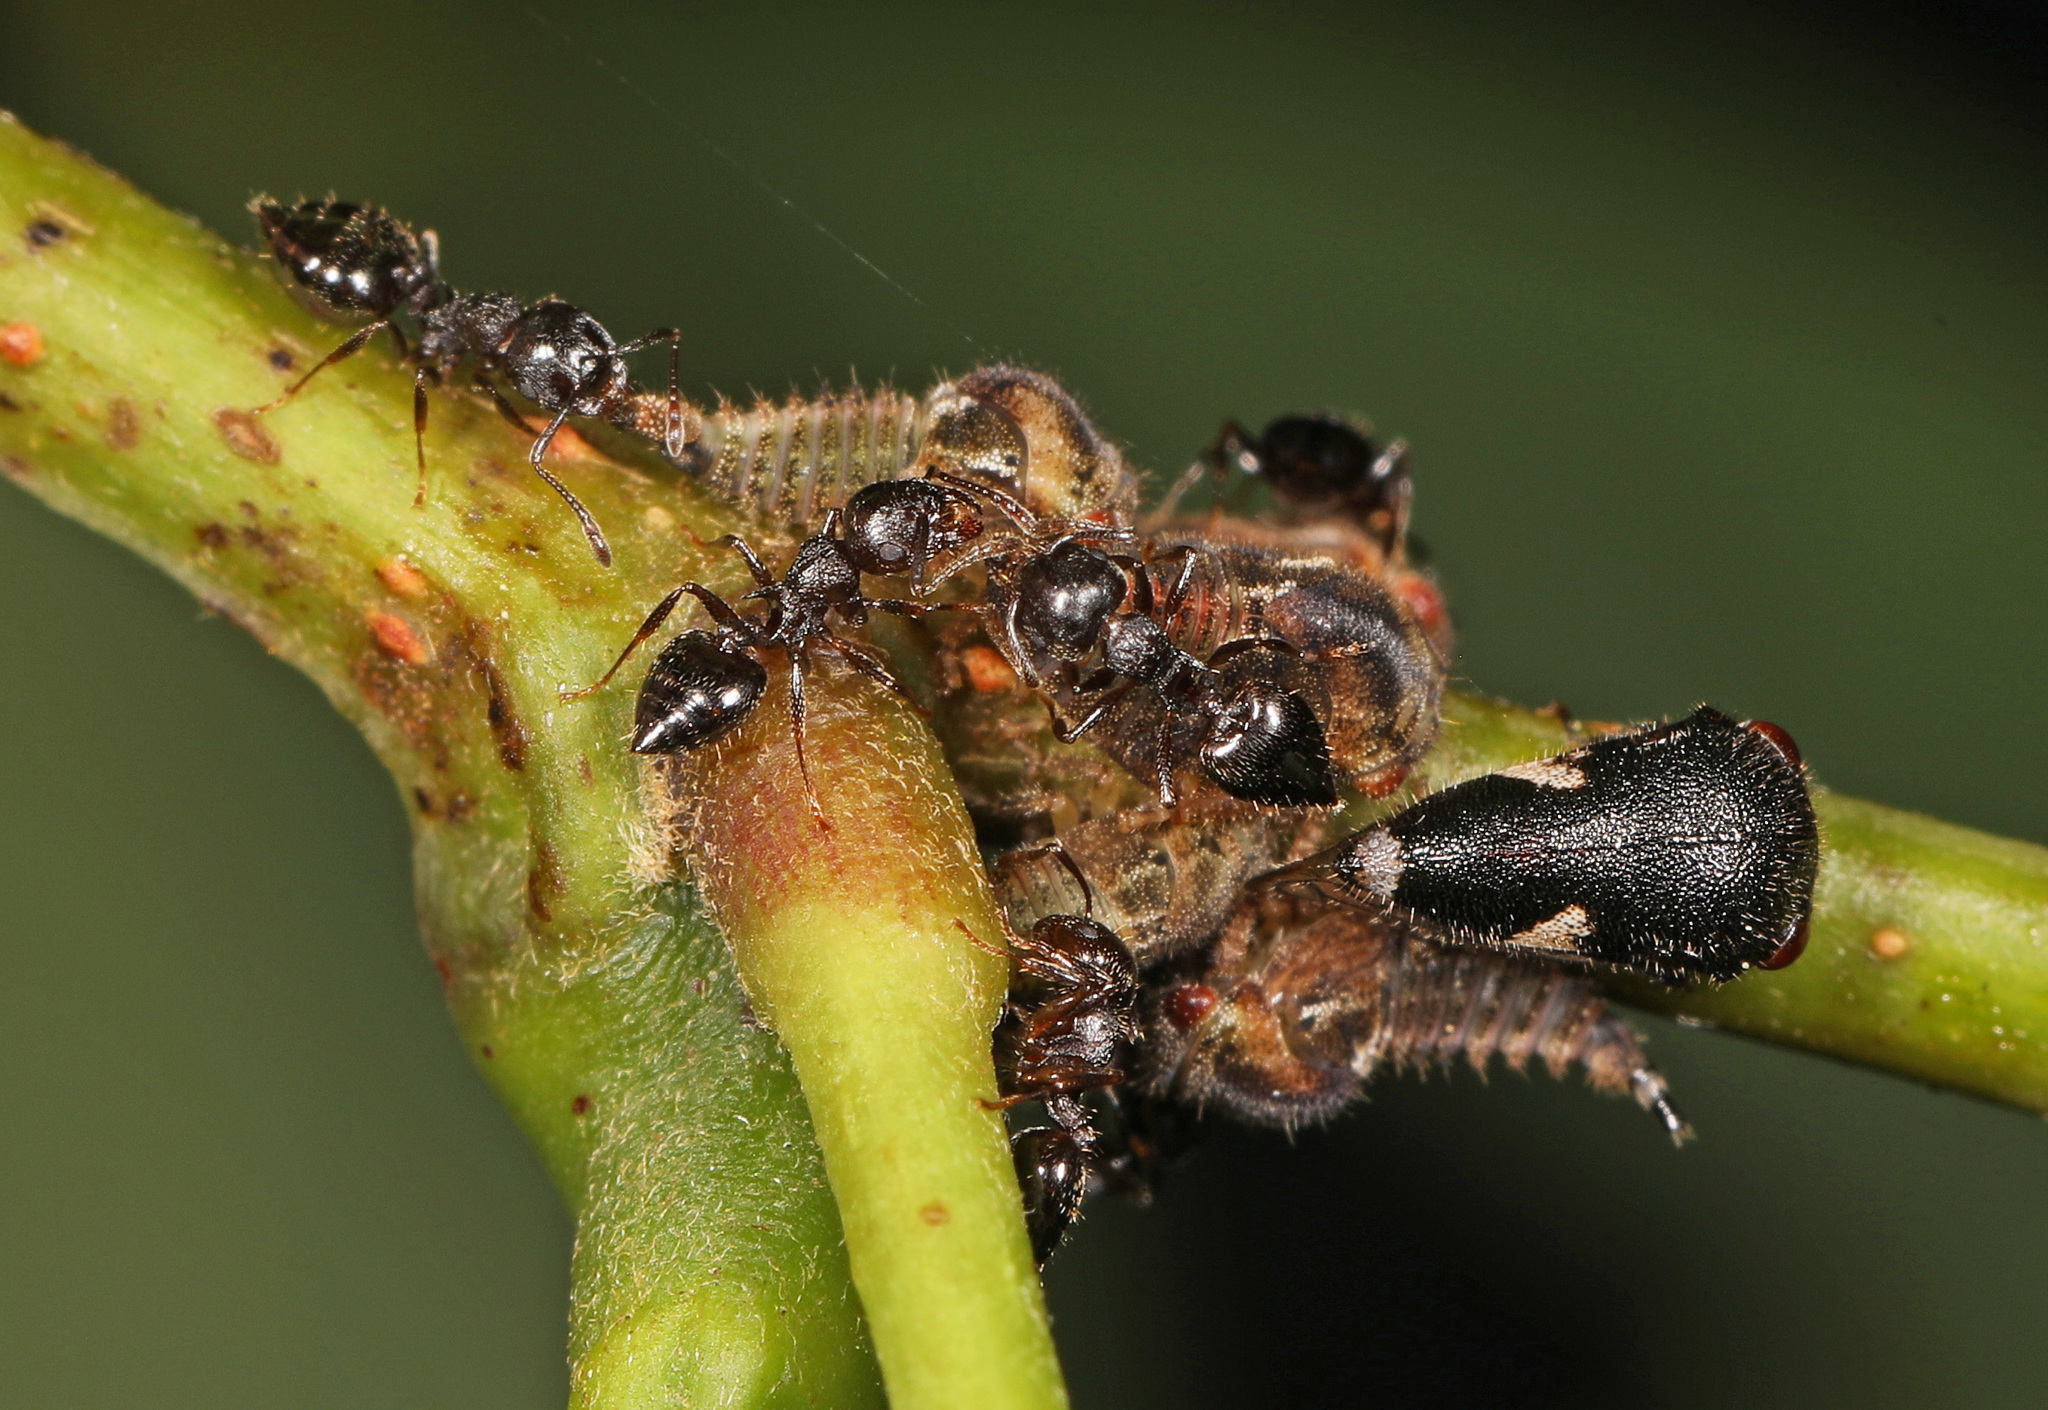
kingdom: Animalia
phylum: Arthropoda
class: Insecta
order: Hemiptera
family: Membracidae
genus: Vanduzea
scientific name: Vanduzea arquata
